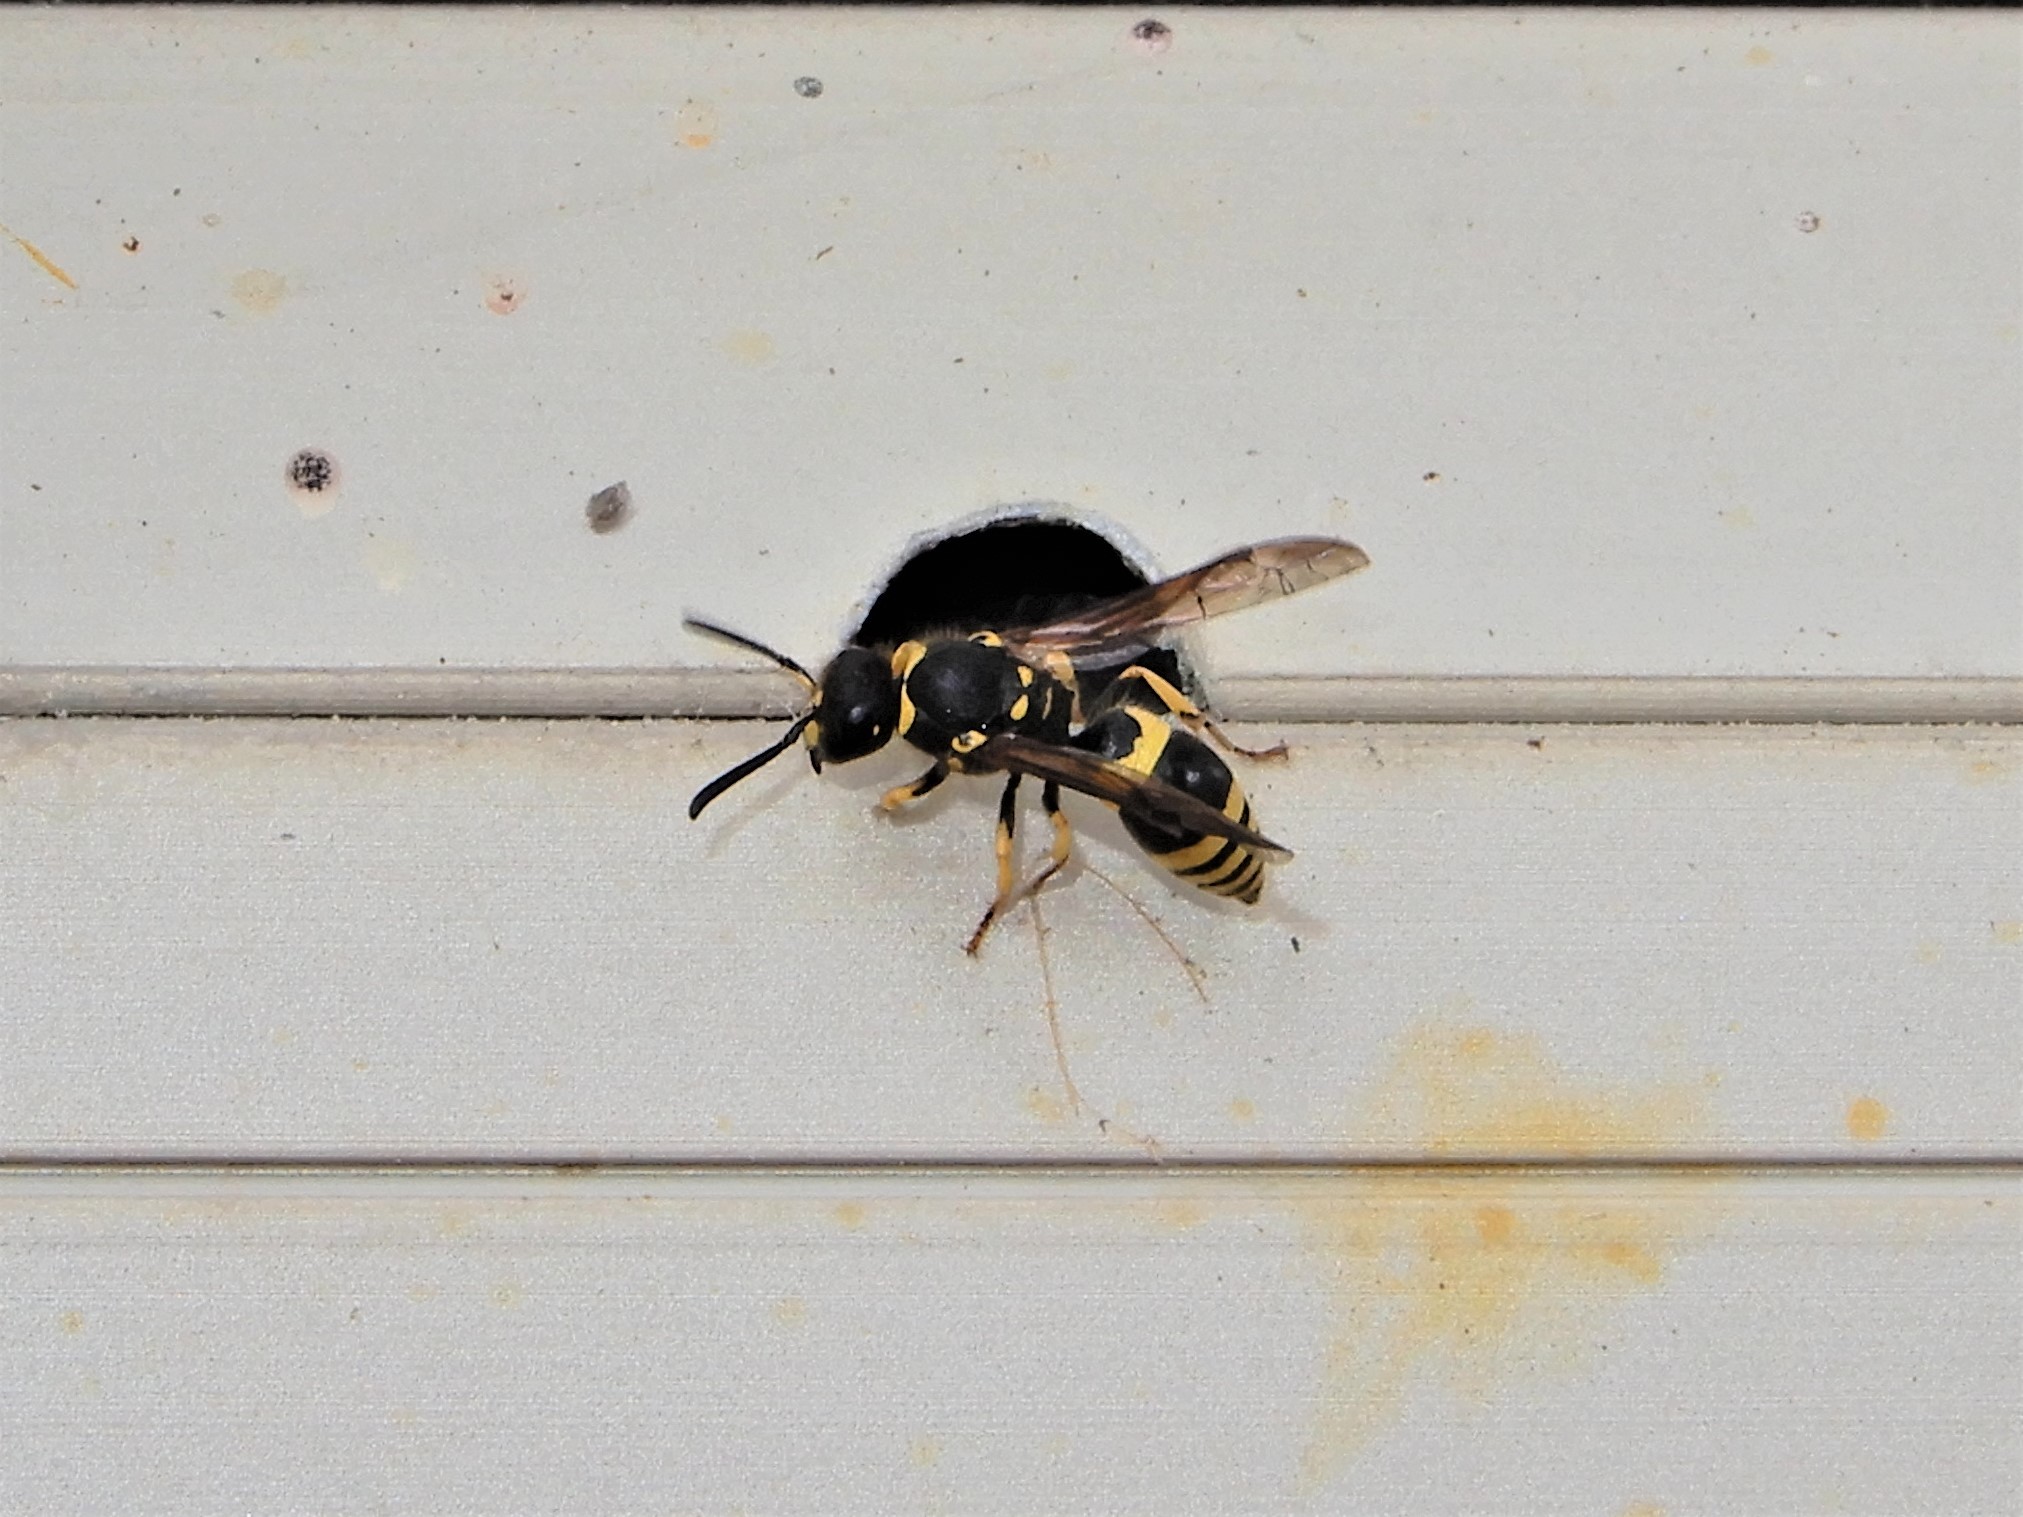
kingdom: Animalia
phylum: Arthropoda
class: Insecta
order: Hymenoptera
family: Vespidae
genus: Ancistrocerus
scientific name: Ancistrocerus gazella
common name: European tube wasp
